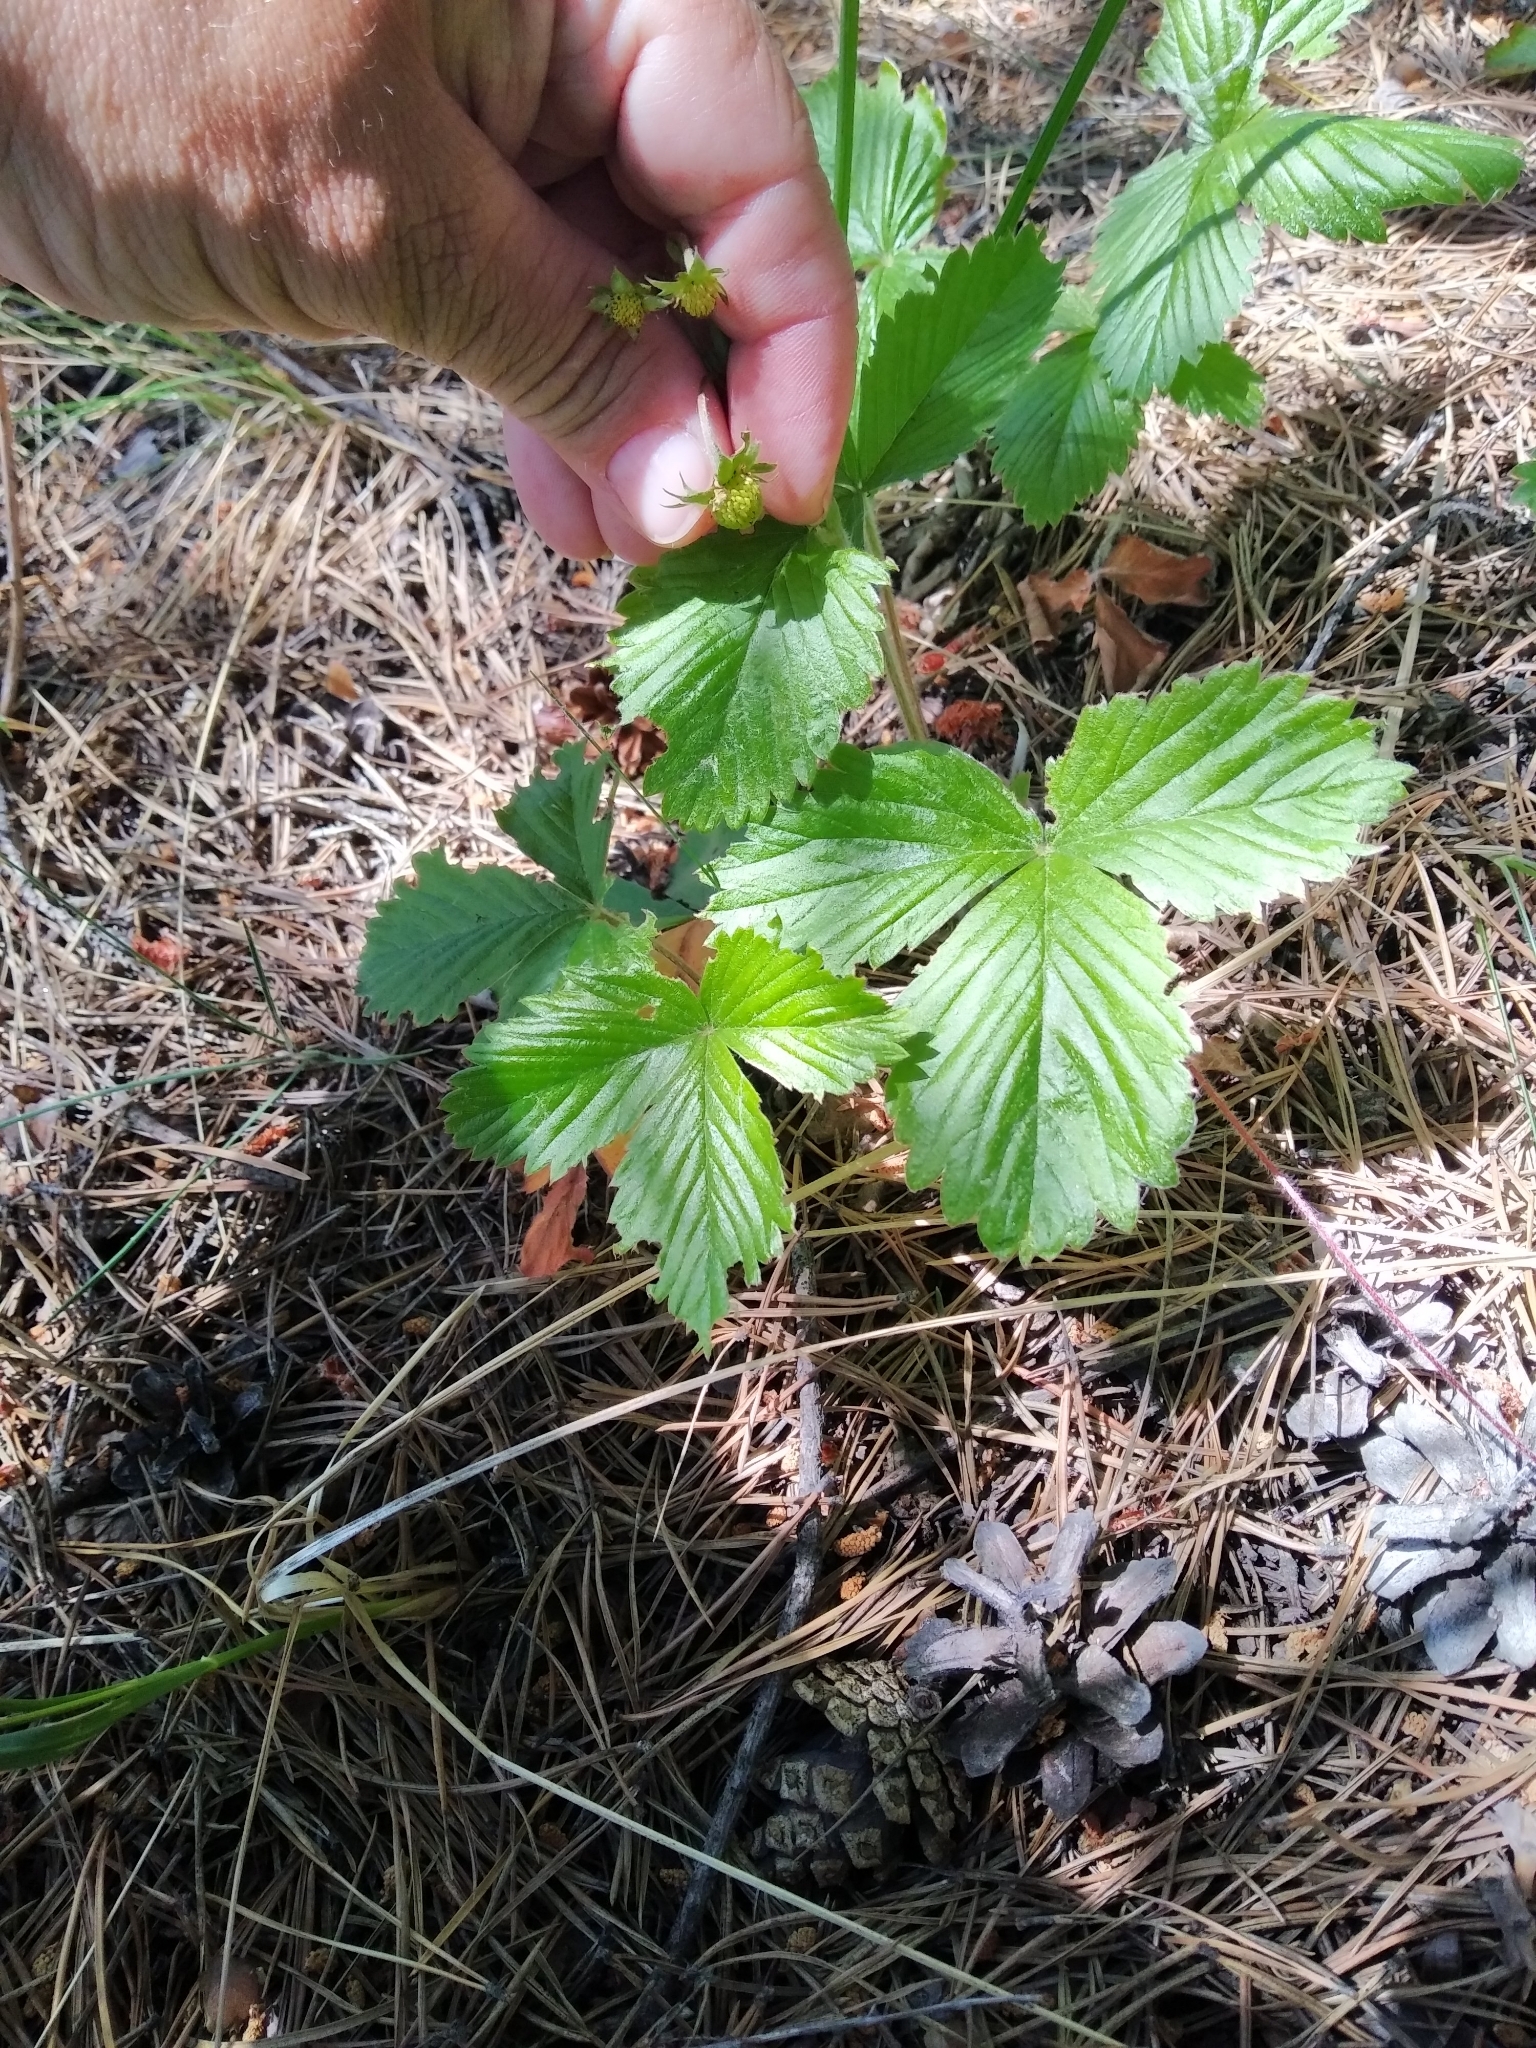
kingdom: Plantae
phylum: Tracheophyta
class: Magnoliopsida
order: Rosales
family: Rosaceae
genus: Fragaria
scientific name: Fragaria vesca
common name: Wild strawberry
